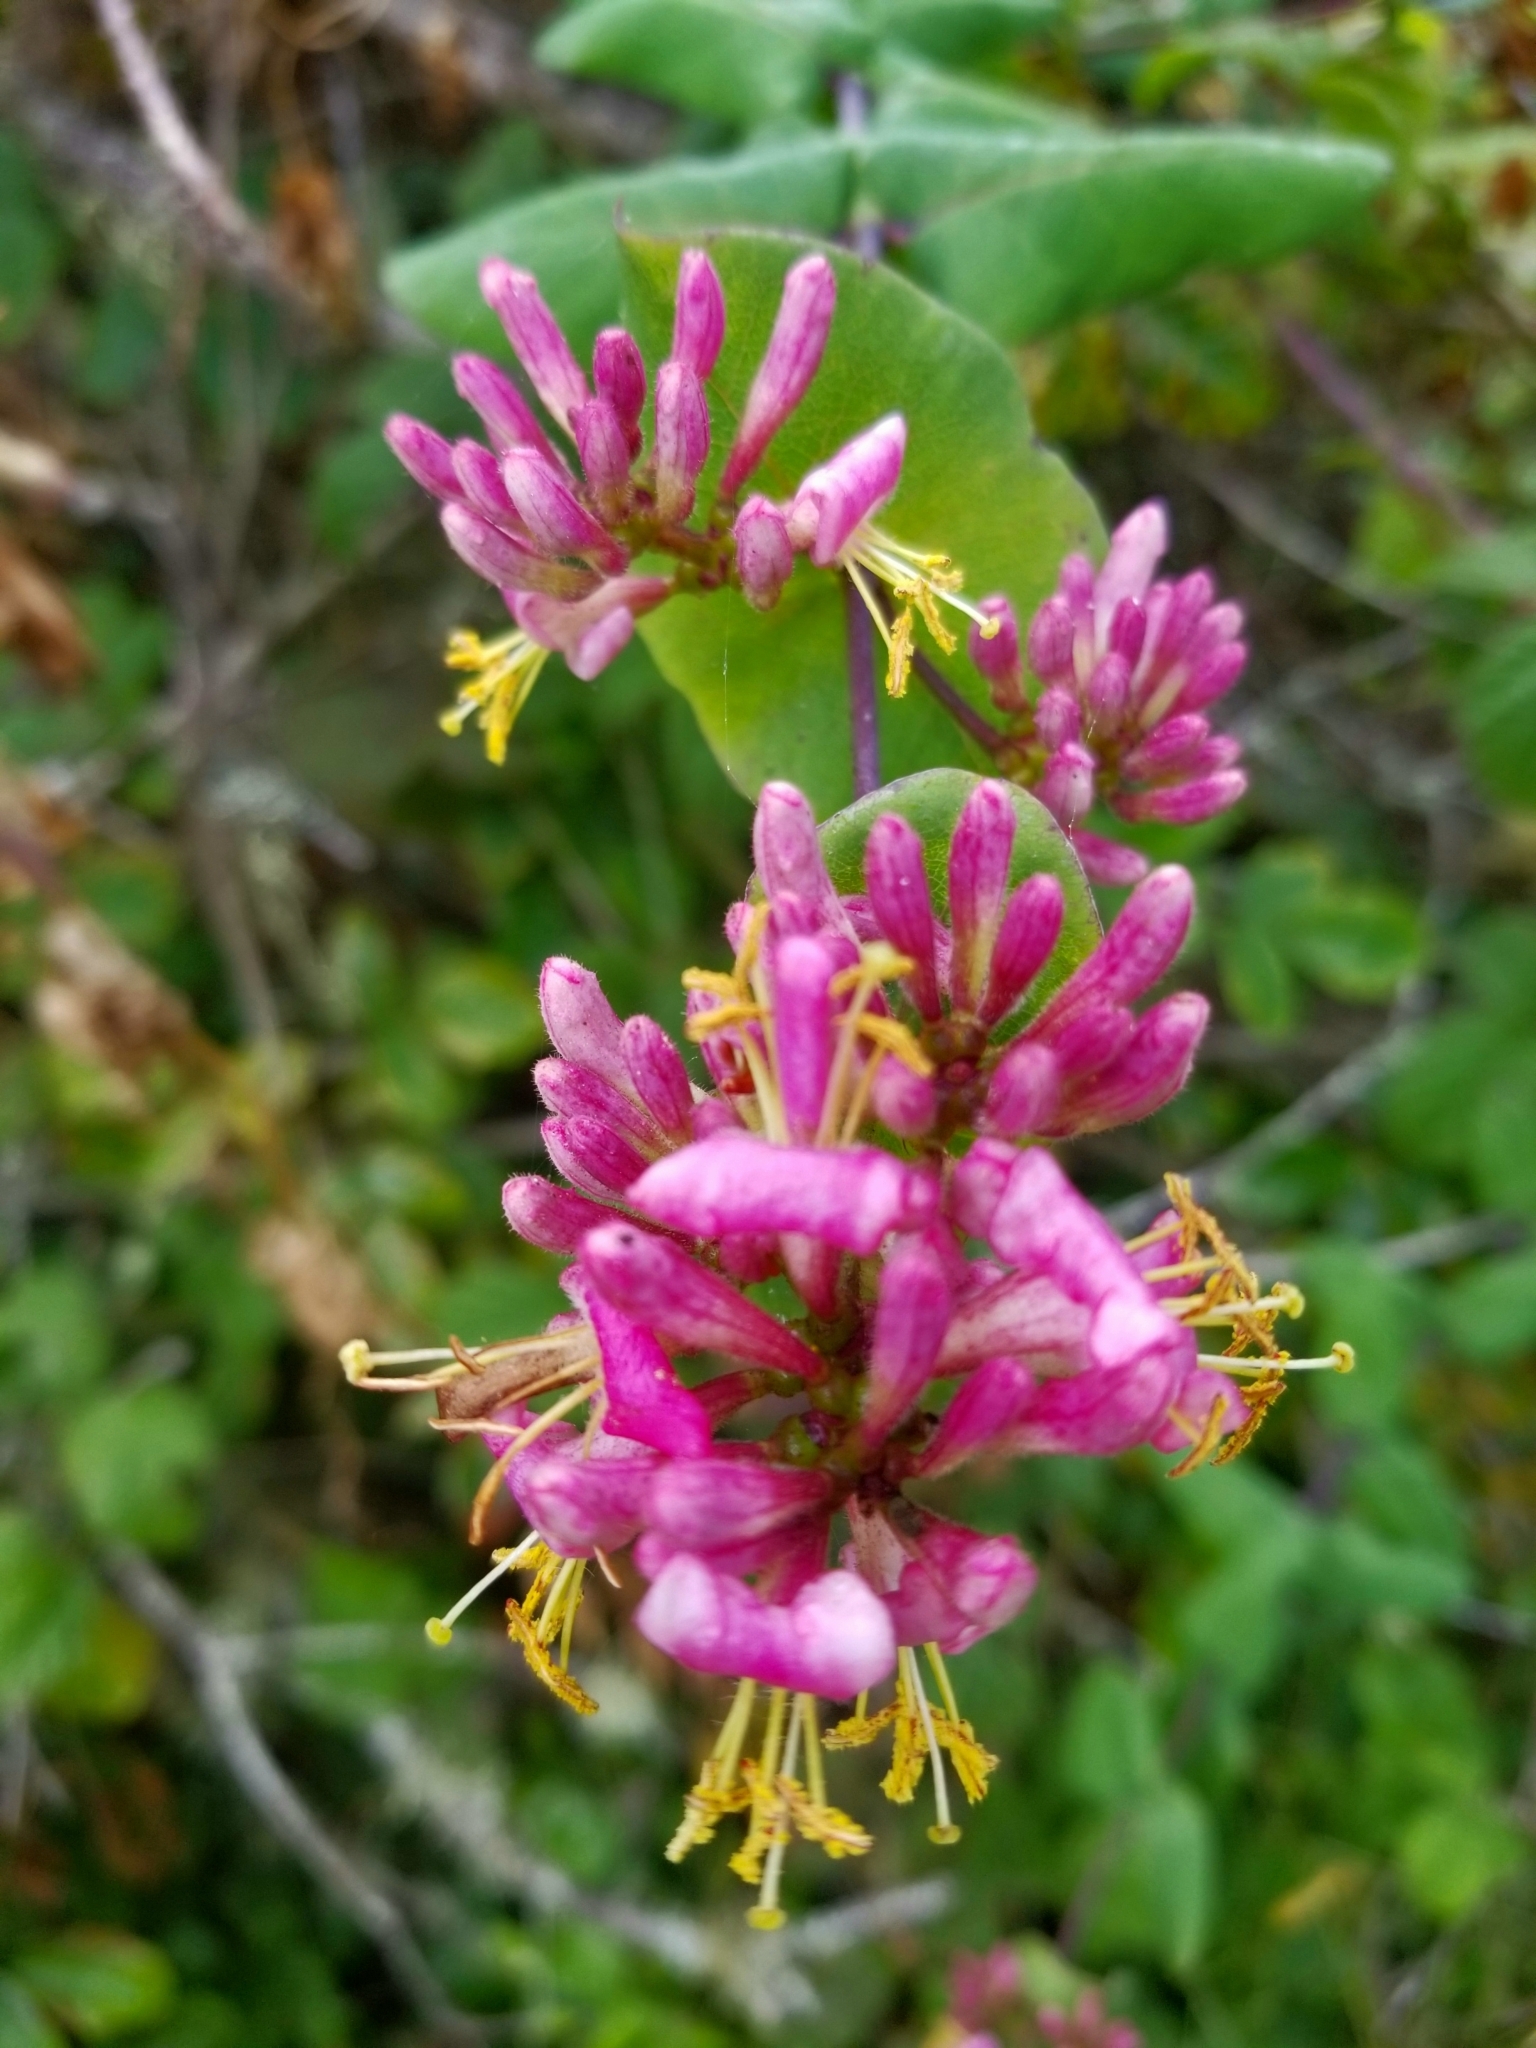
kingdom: Plantae
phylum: Tracheophyta
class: Magnoliopsida
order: Dipsacales
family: Caprifoliaceae
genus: Lonicera
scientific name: Lonicera hispidula
